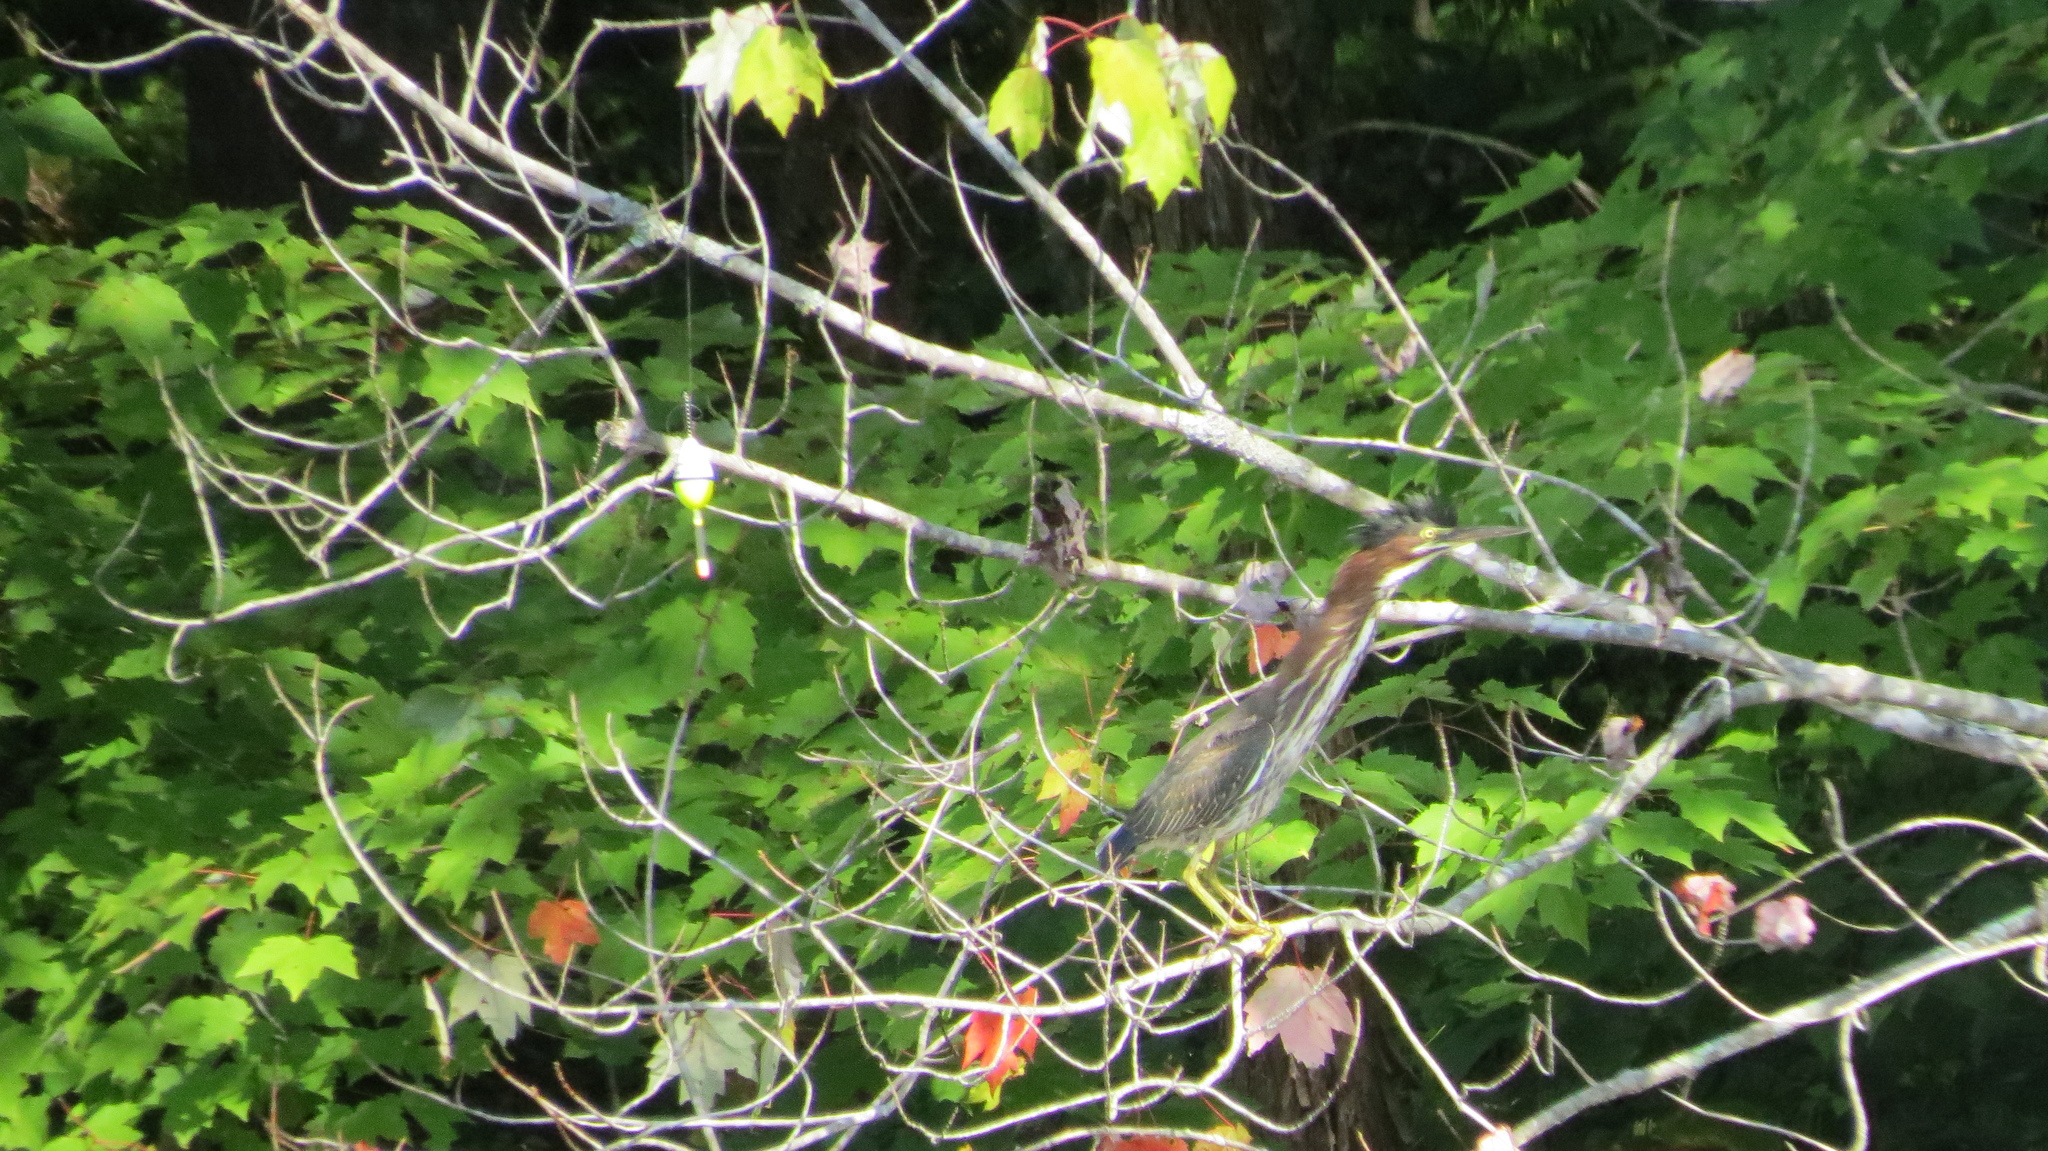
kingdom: Animalia
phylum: Chordata
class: Aves
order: Pelecaniformes
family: Ardeidae
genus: Butorides
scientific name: Butorides virescens
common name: Green heron
